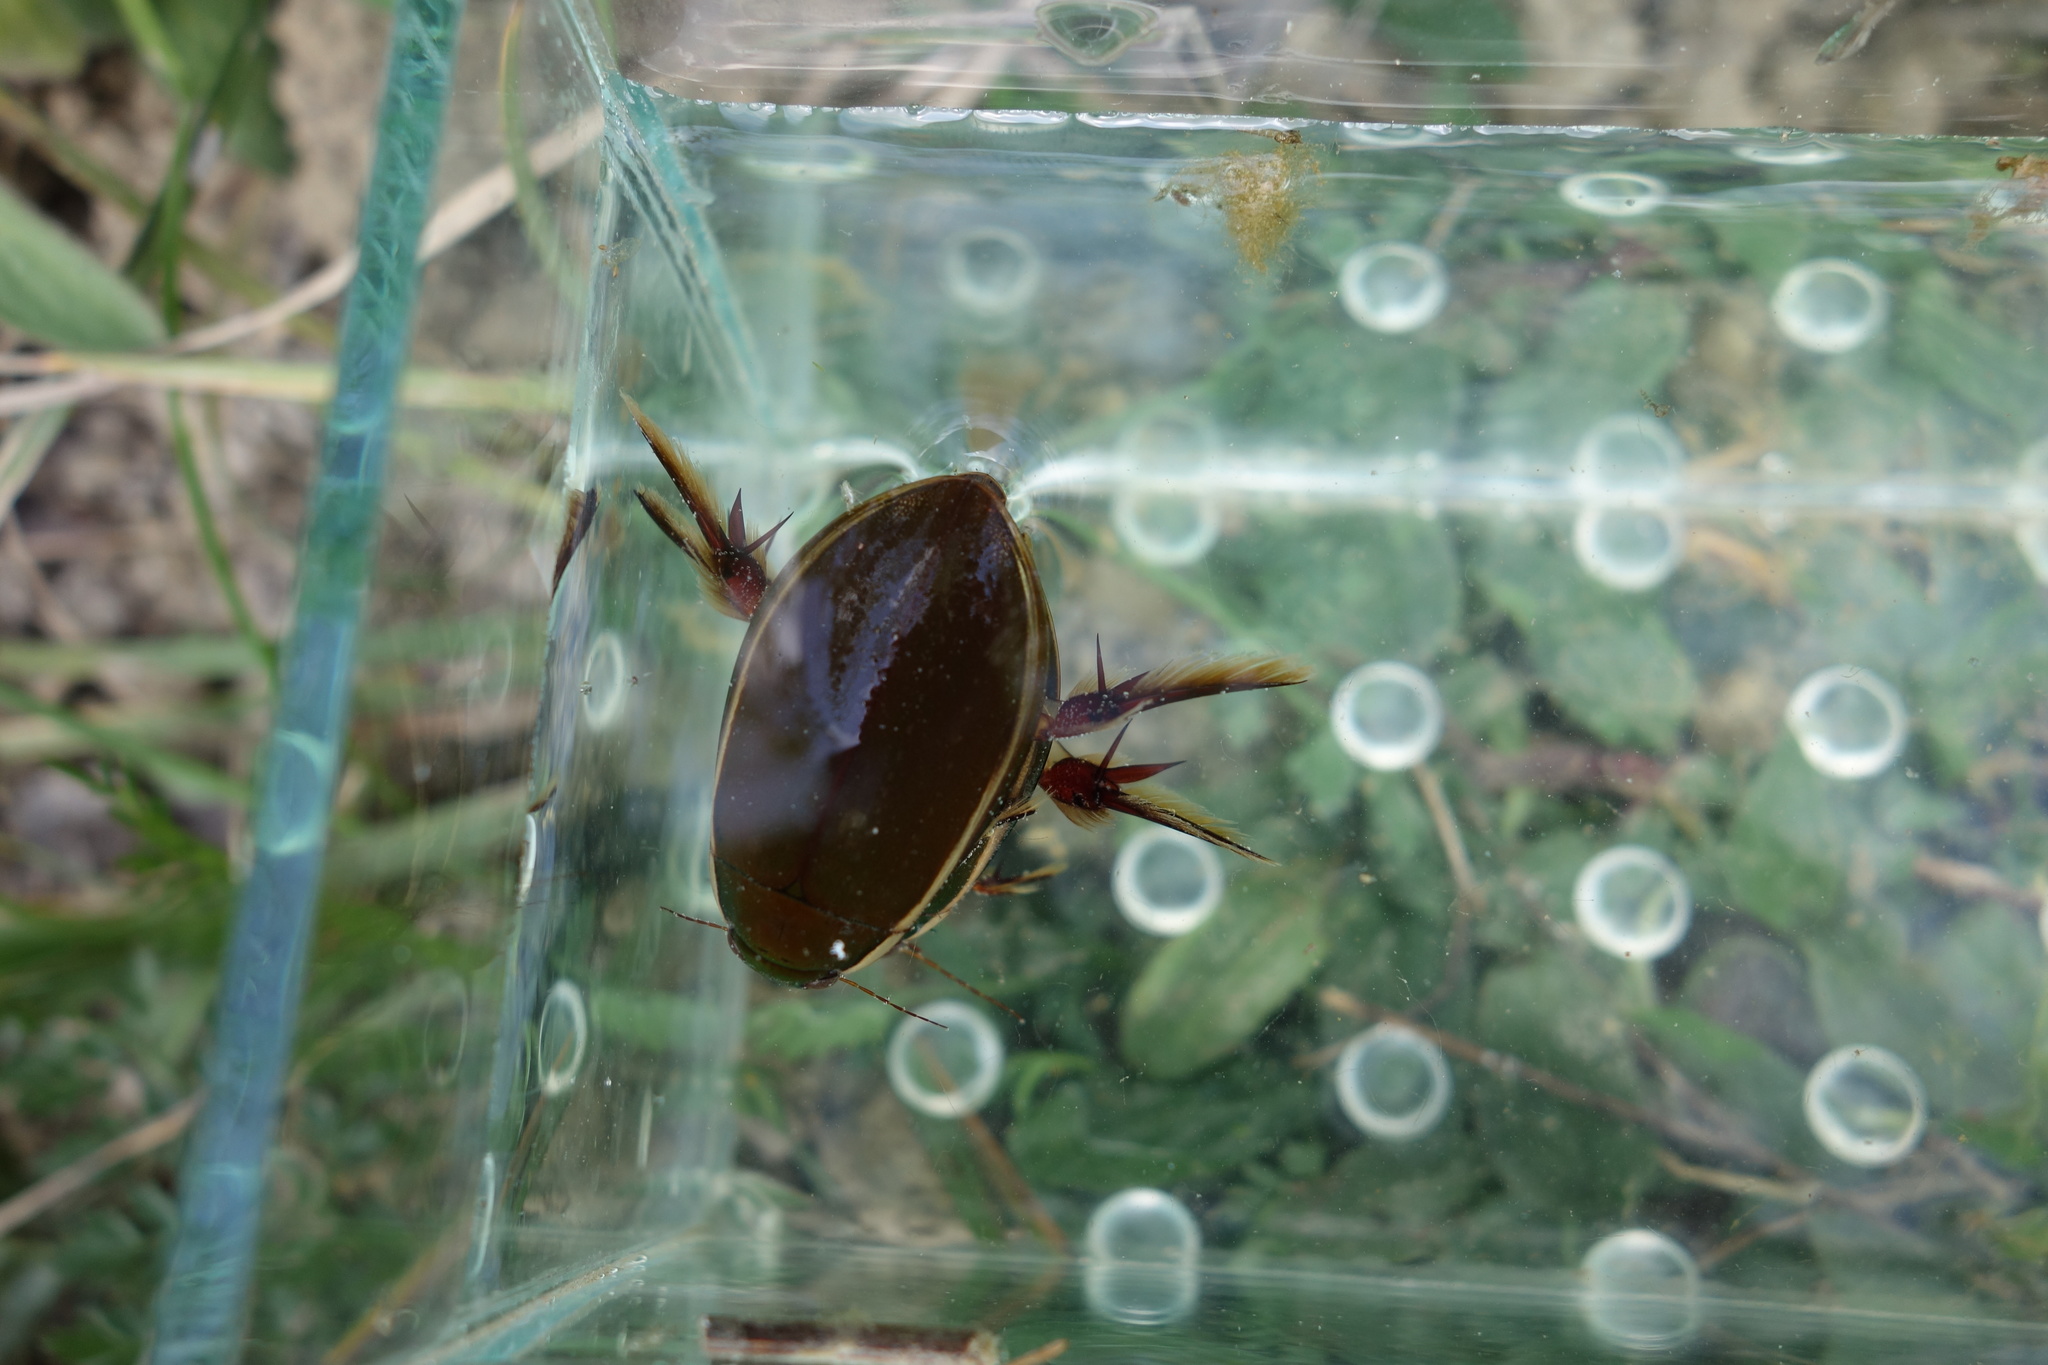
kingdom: Animalia
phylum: Arthropoda
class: Insecta
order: Coleoptera
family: Dytiscidae
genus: Cybister
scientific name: Cybister lateralimarginalis
